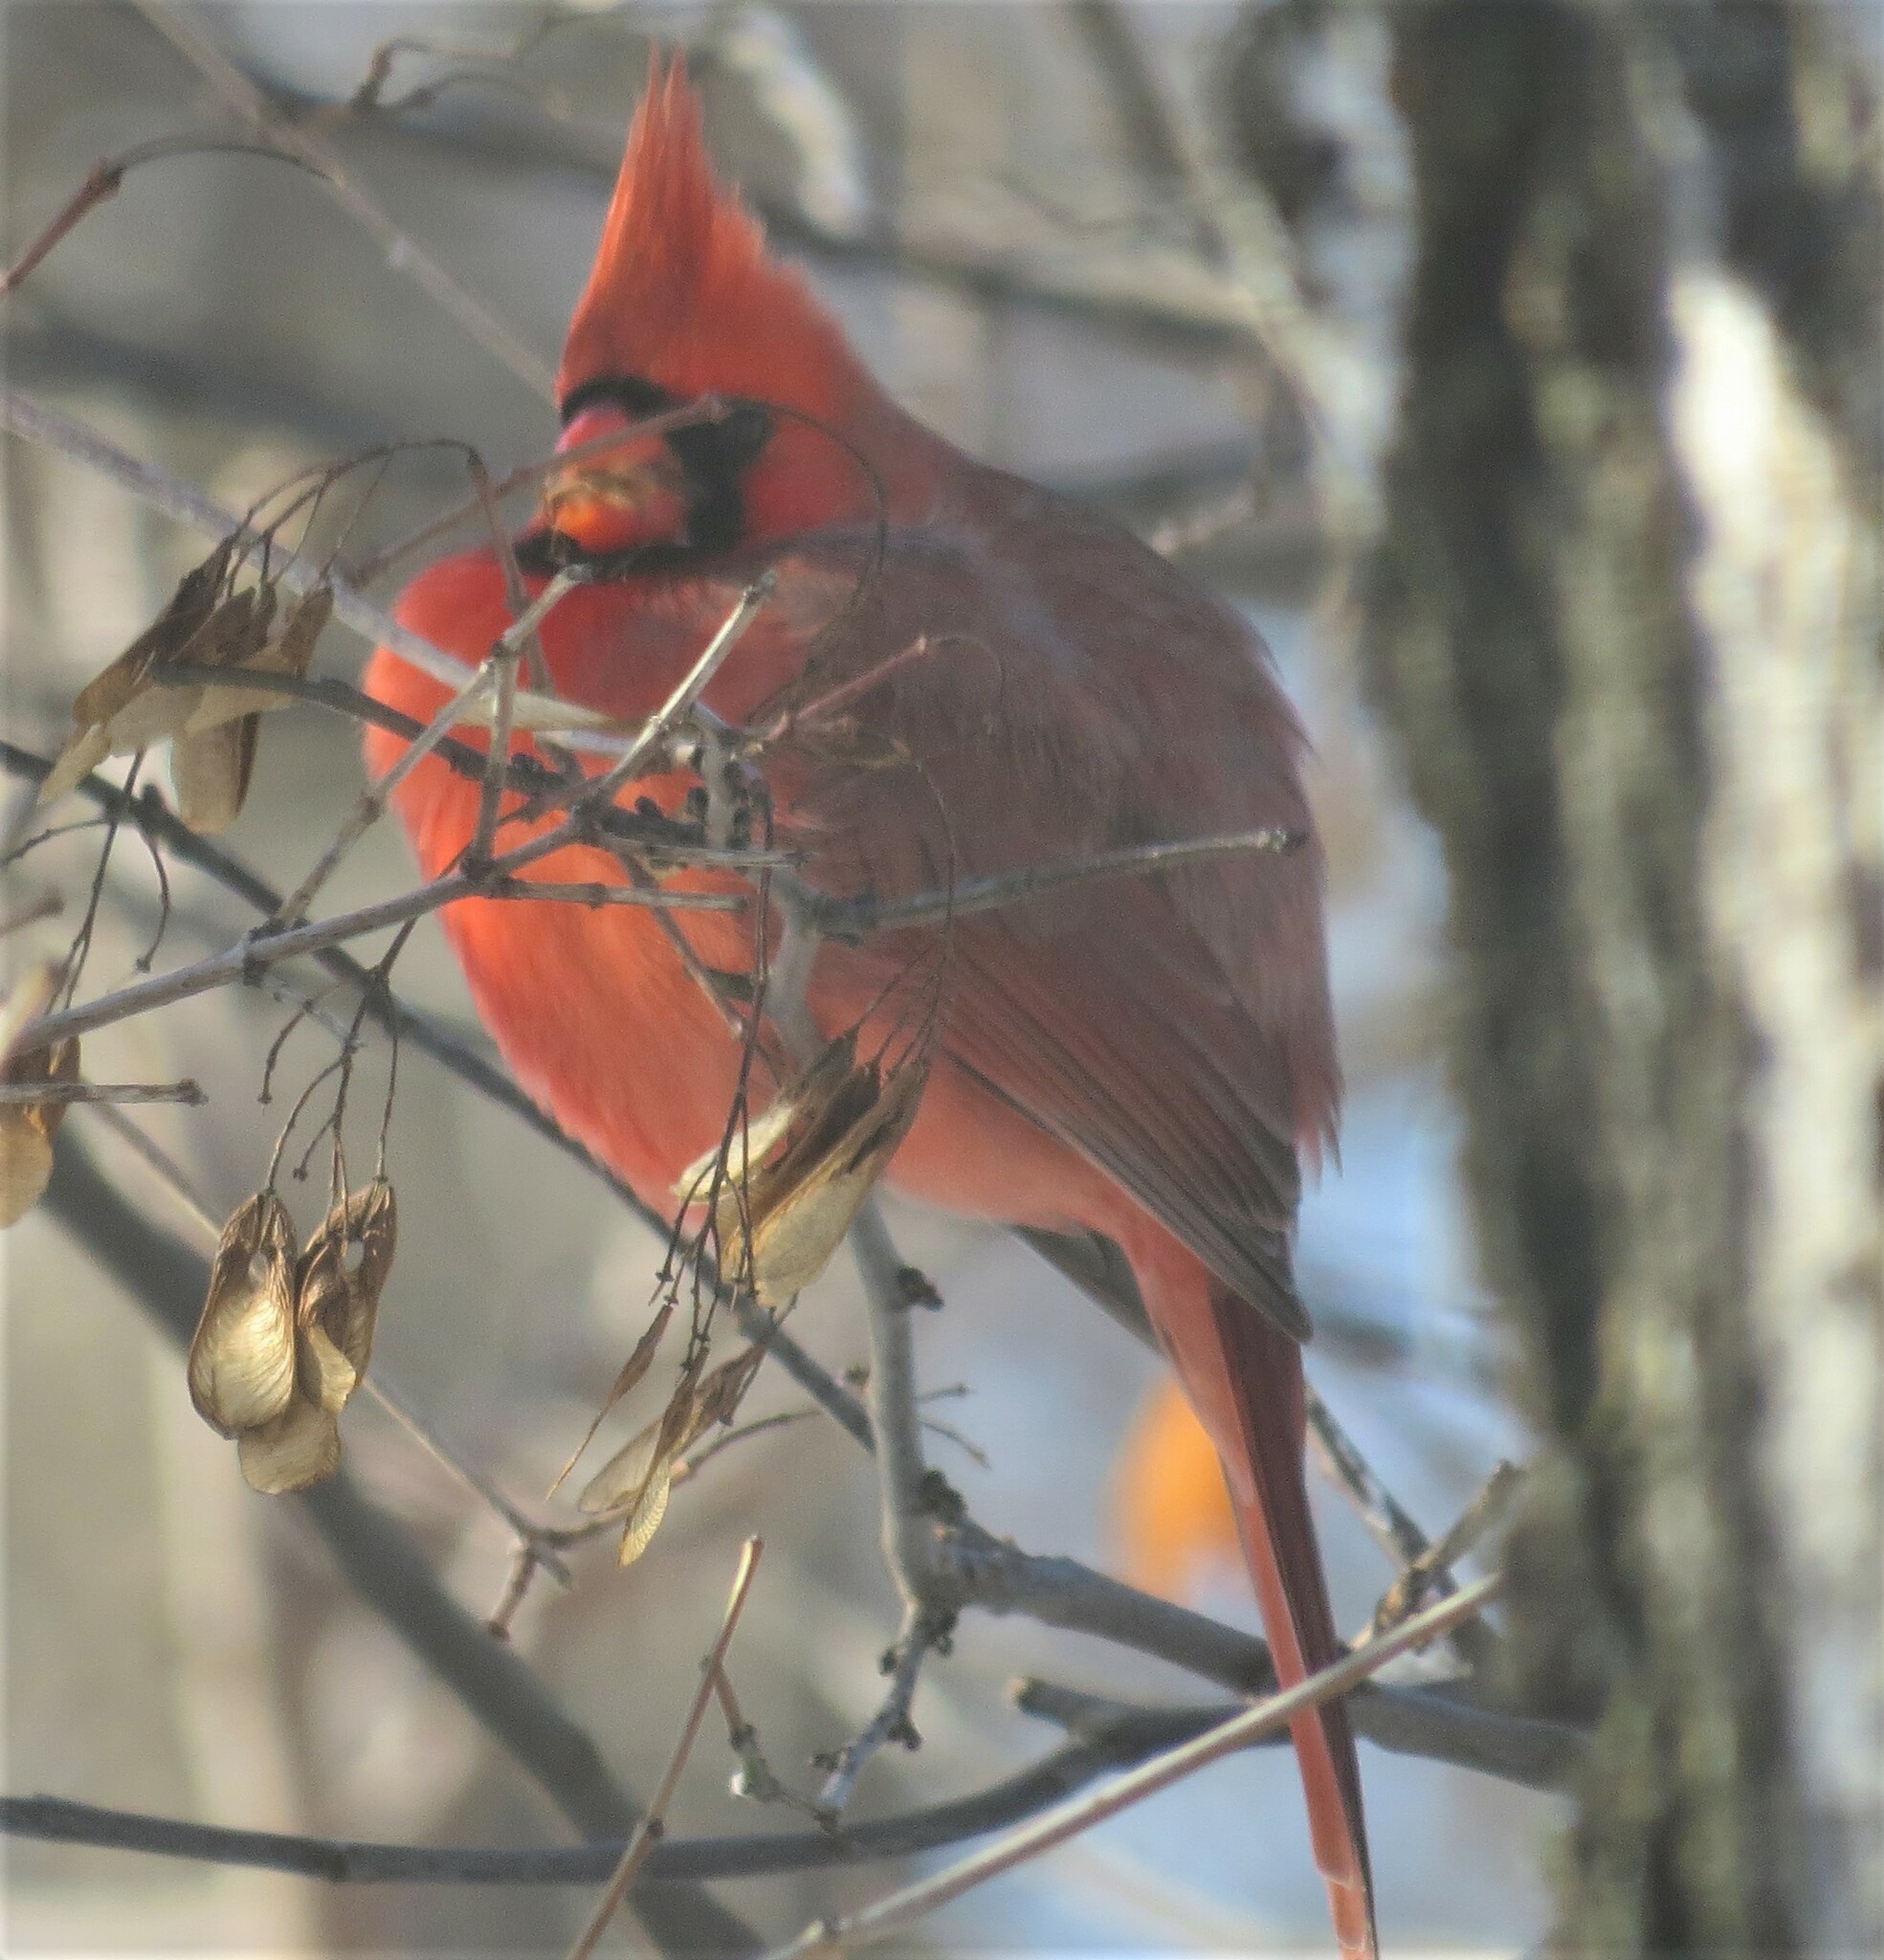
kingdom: Animalia
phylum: Chordata
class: Aves
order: Passeriformes
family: Cardinalidae
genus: Cardinalis
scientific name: Cardinalis cardinalis
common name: Northern cardinal
